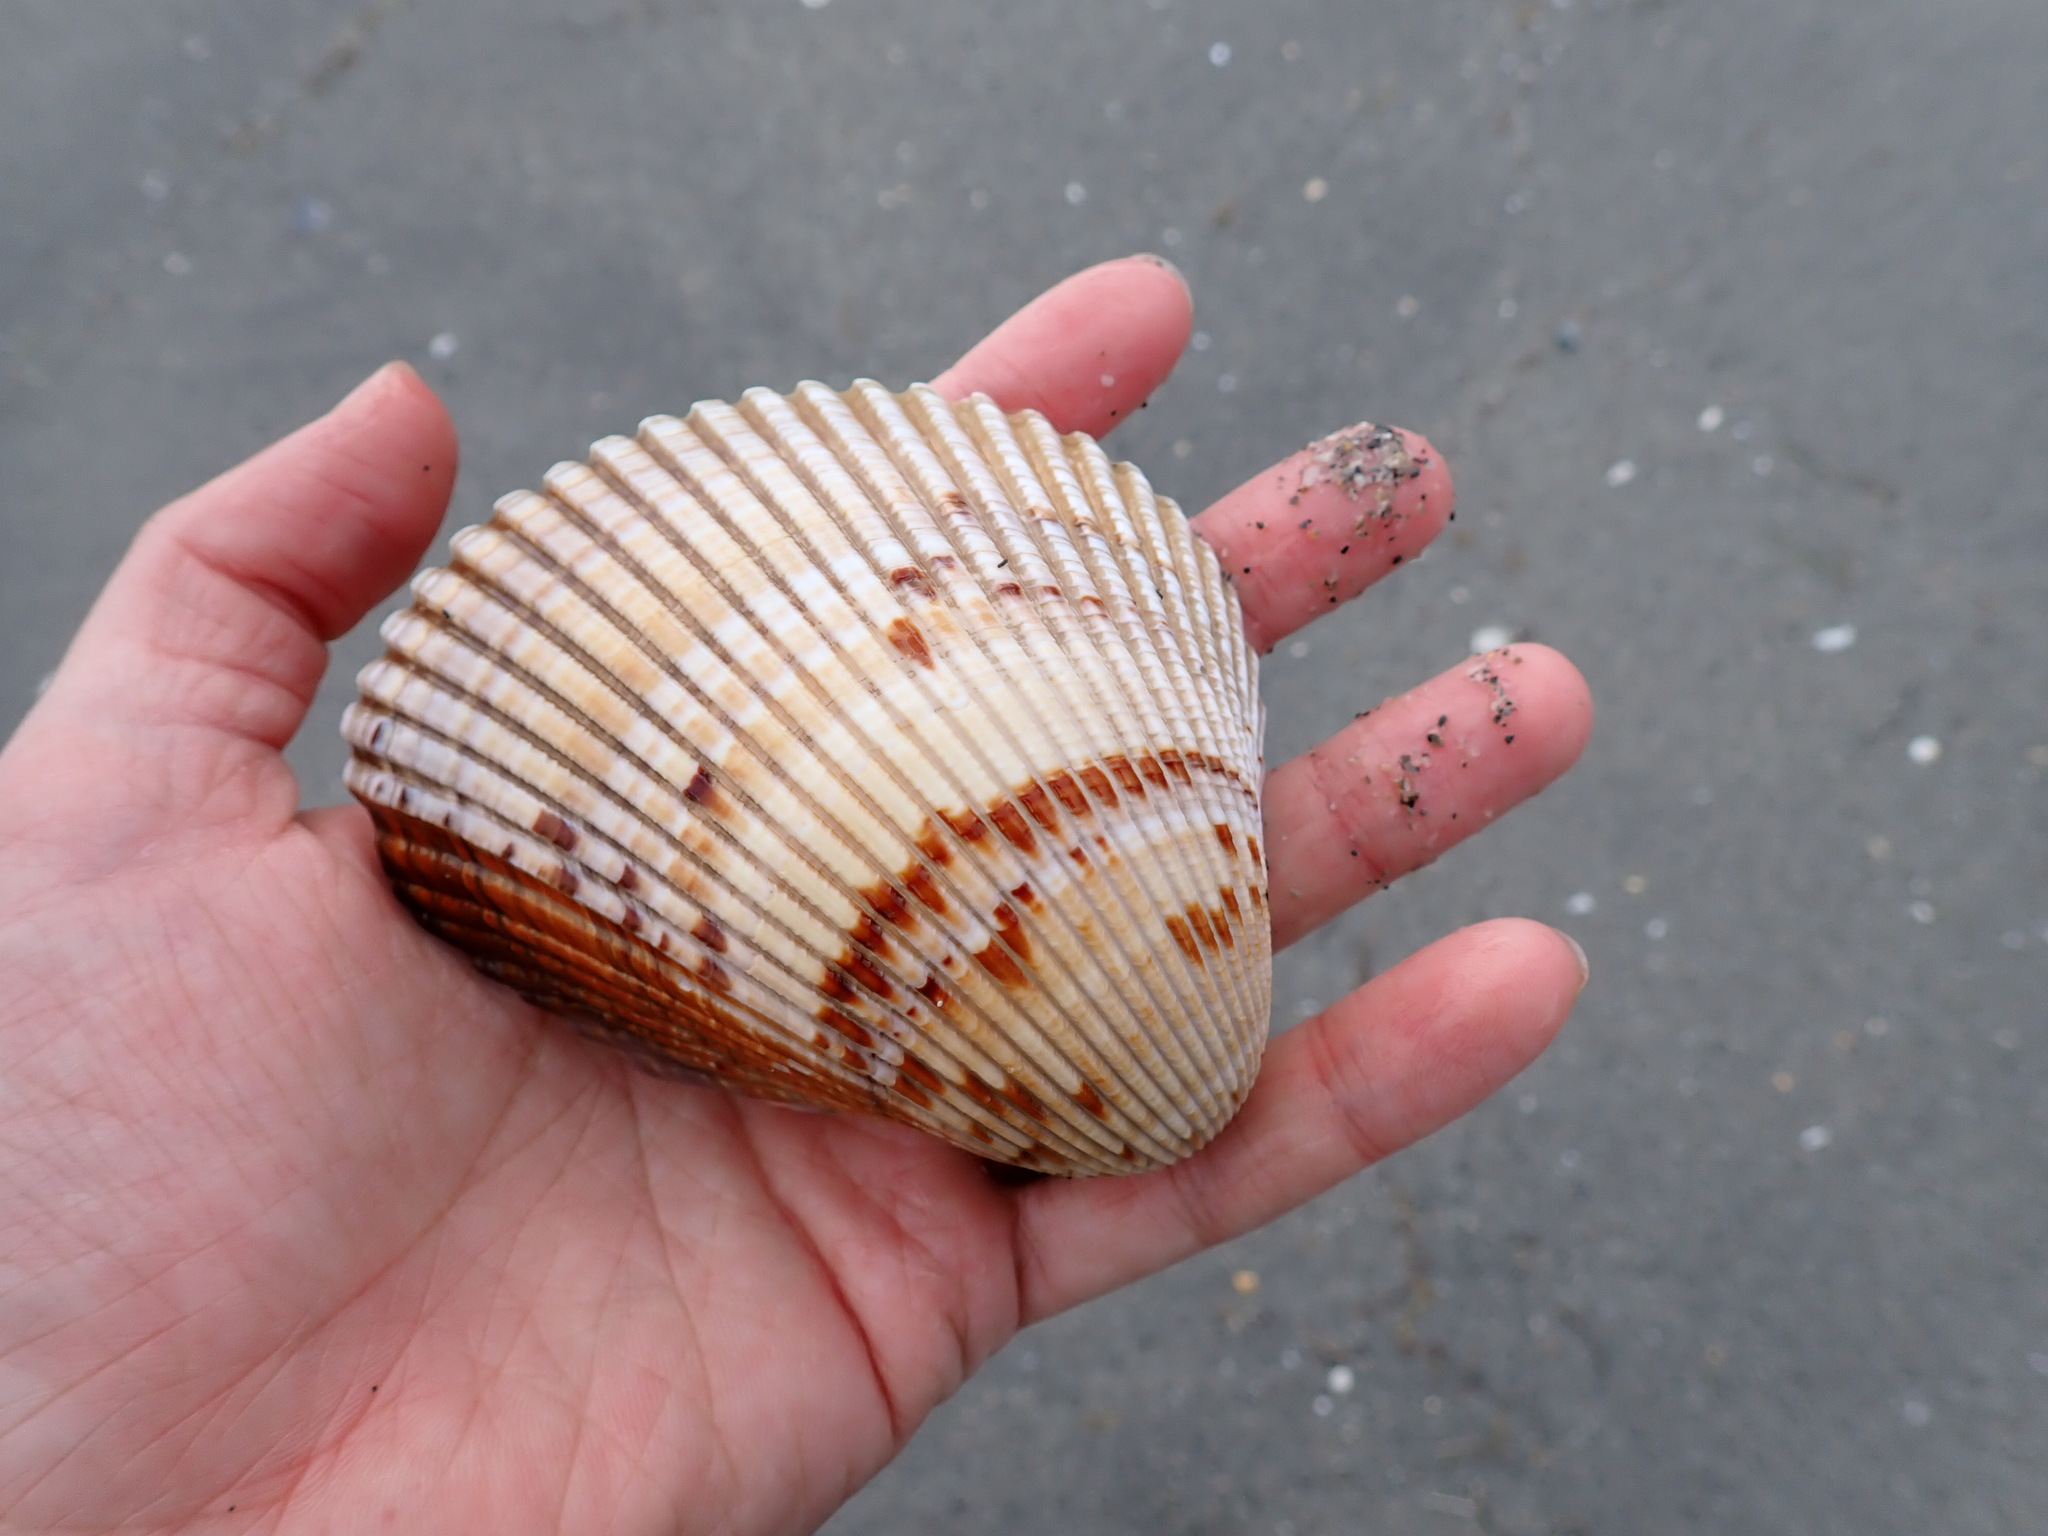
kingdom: Animalia
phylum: Mollusca
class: Bivalvia
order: Cardiida
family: Cardiidae
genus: Dinocardium
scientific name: Dinocardium robustum
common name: Atlantic giant cockle
